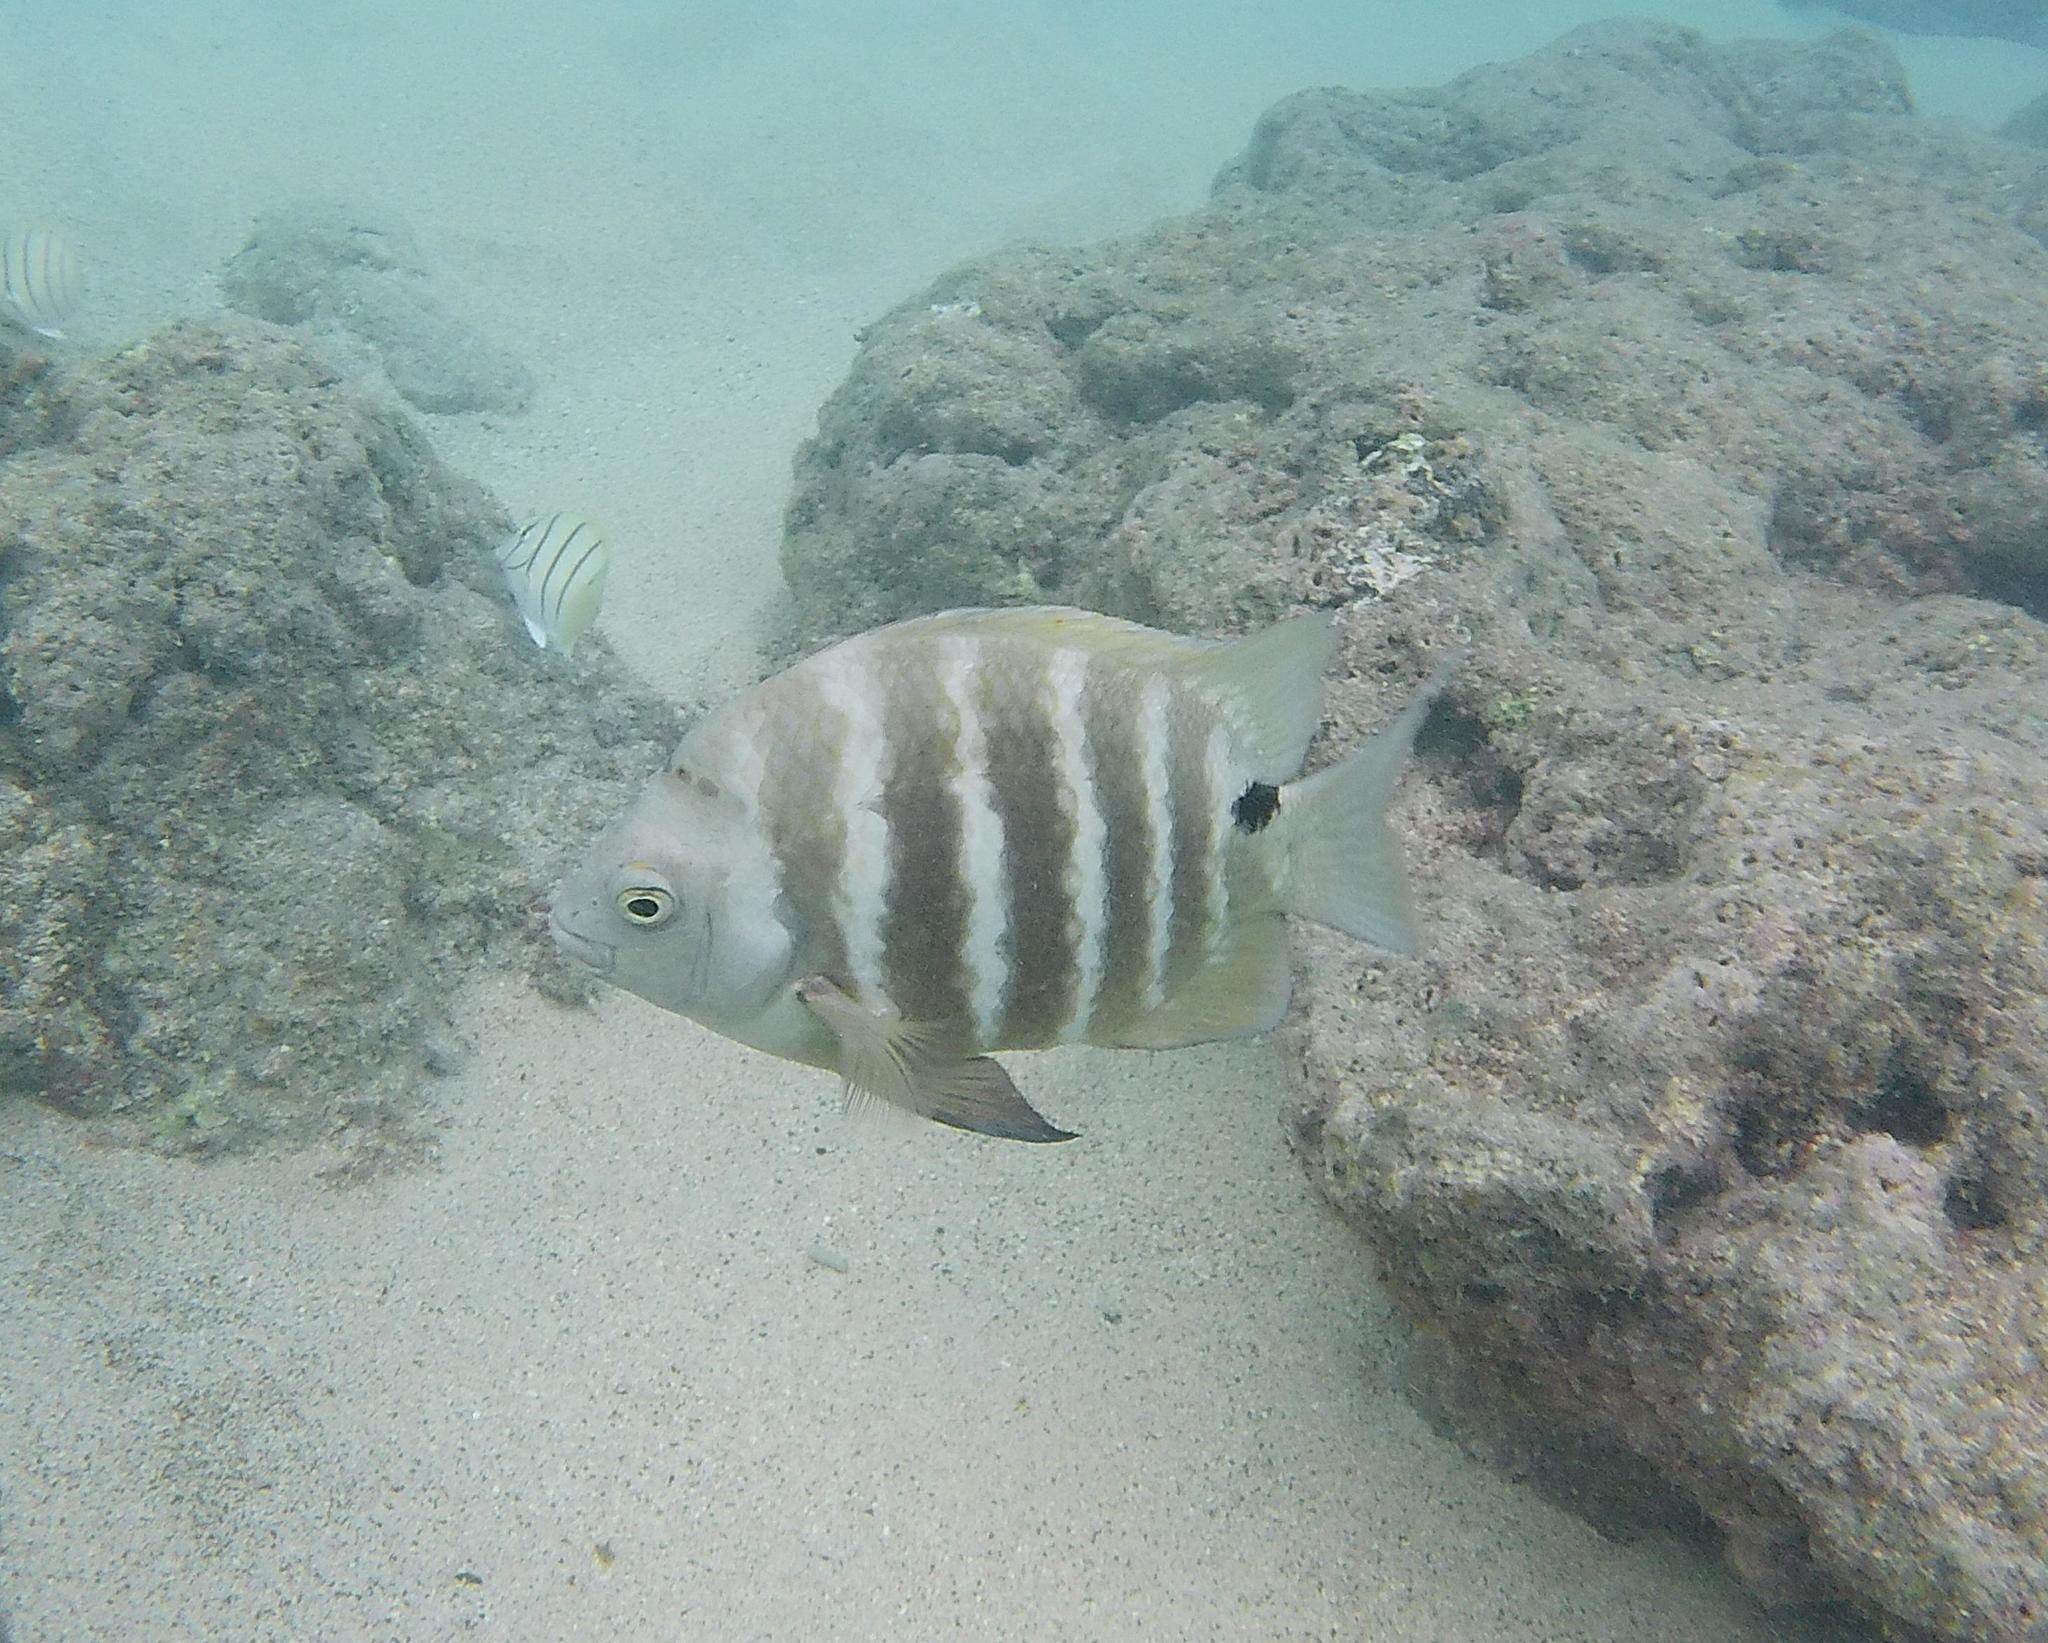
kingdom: Animalia
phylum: Chordata
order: Perciformes
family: Pomacentridae
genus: Abudefduf
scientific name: Abudefduf sordidus
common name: Blackspot sergeant
